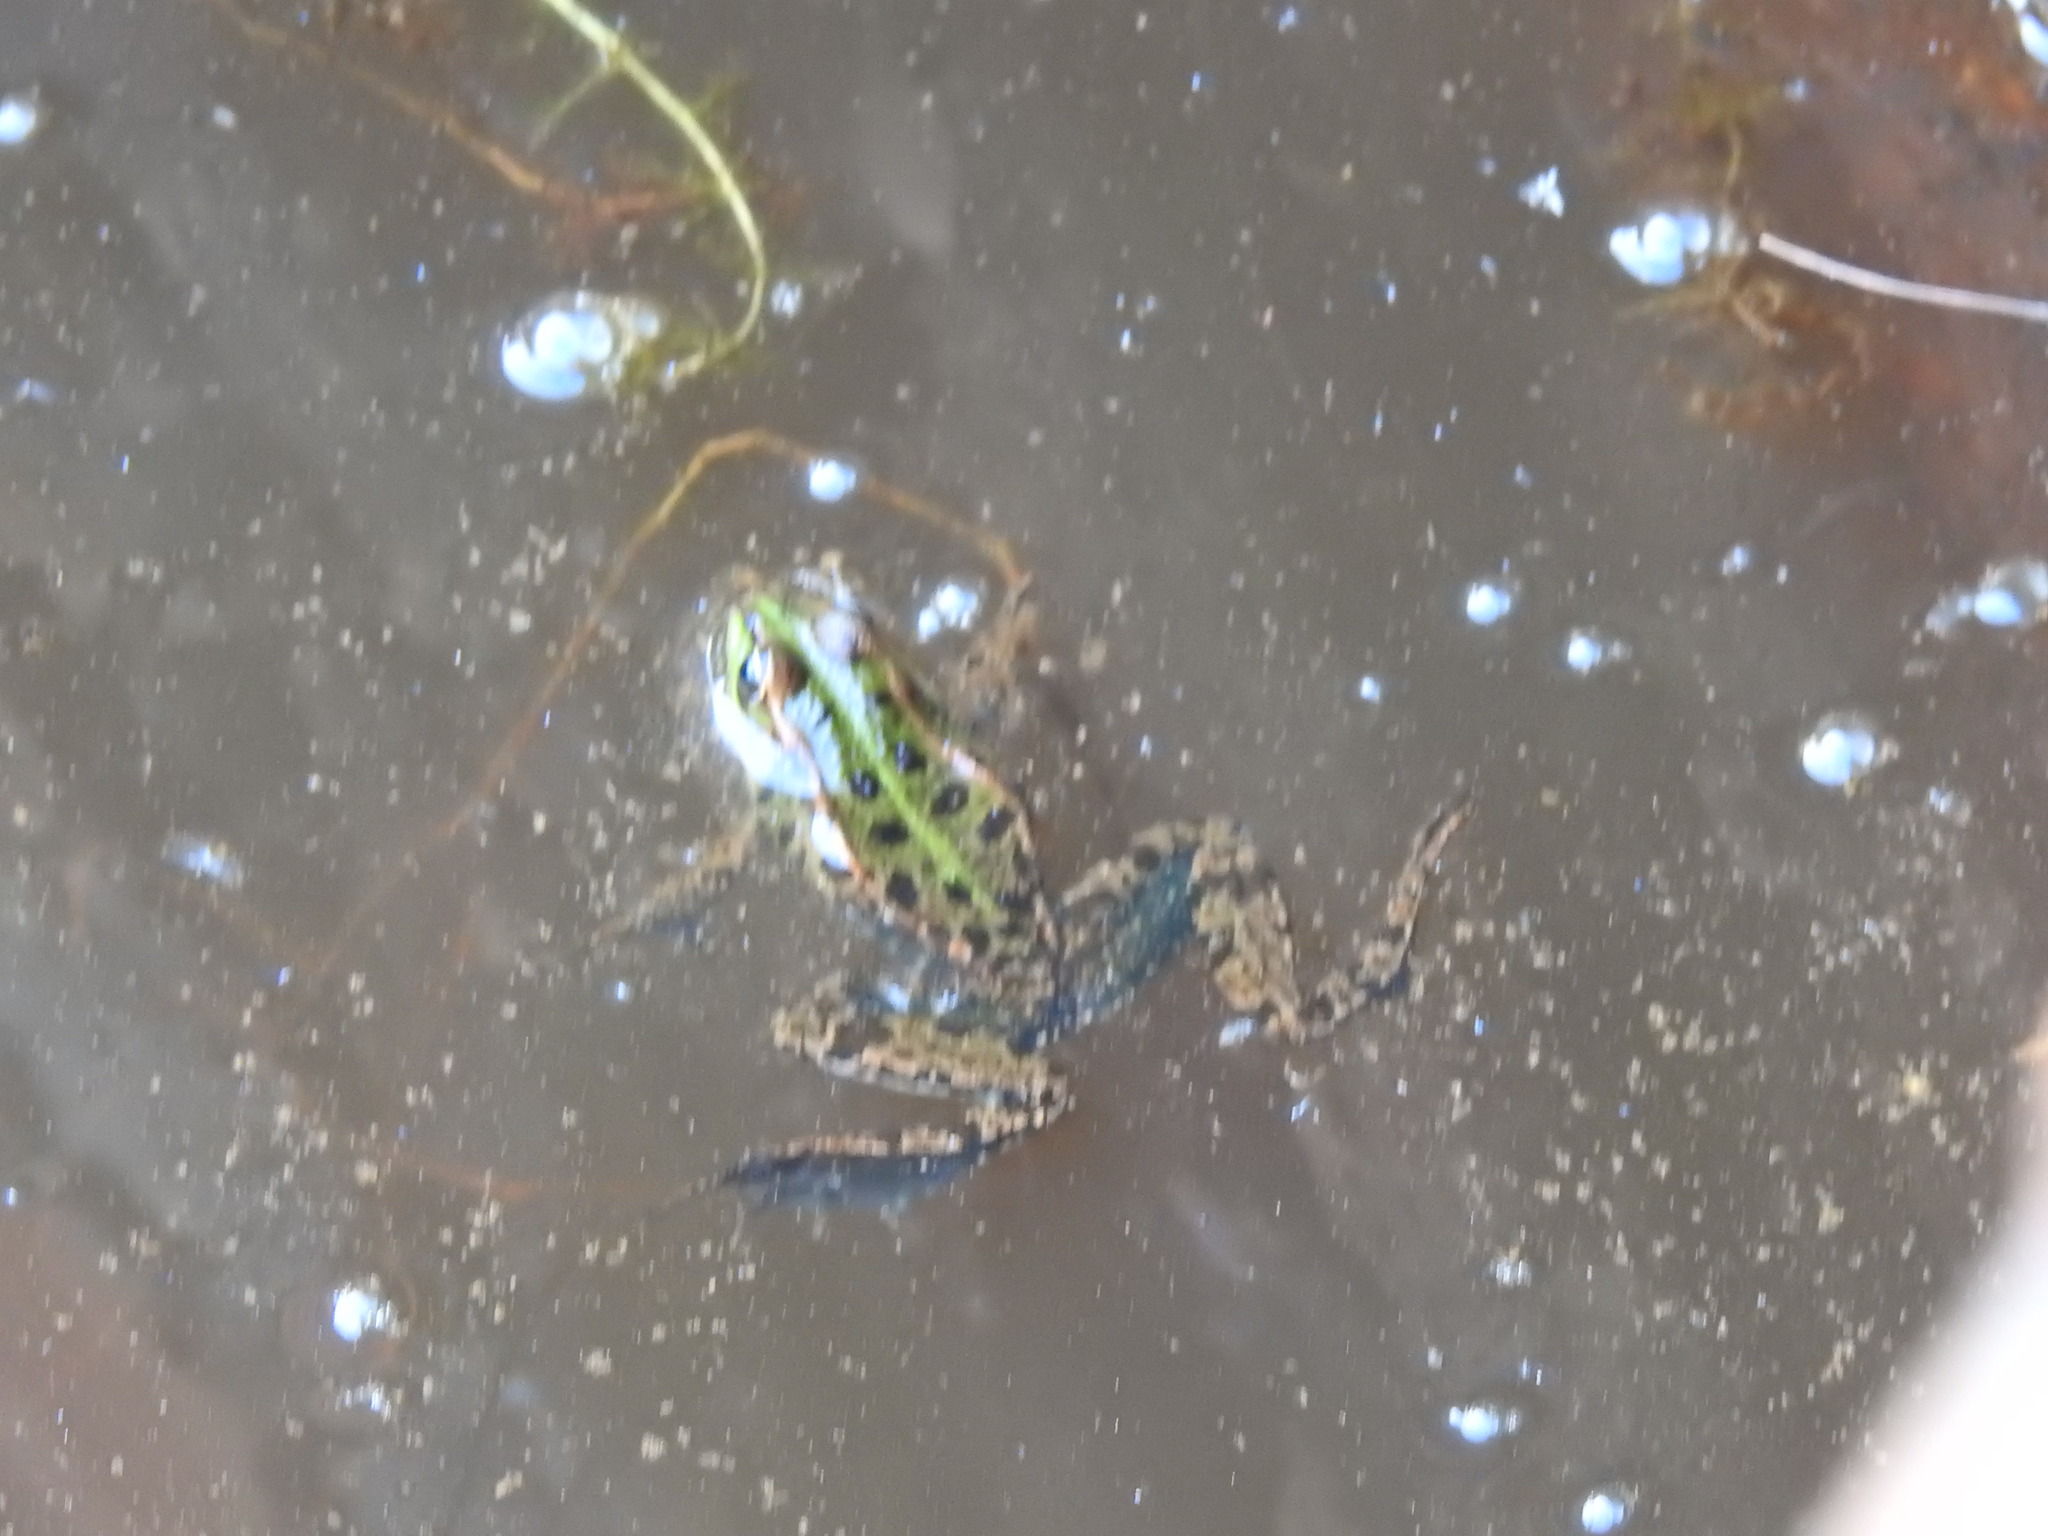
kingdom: Animalia
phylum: Chordata
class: Amphibia
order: Anura
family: Ranidae
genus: Pelophylax
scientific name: Pelophylax perezi
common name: Perez's frog
